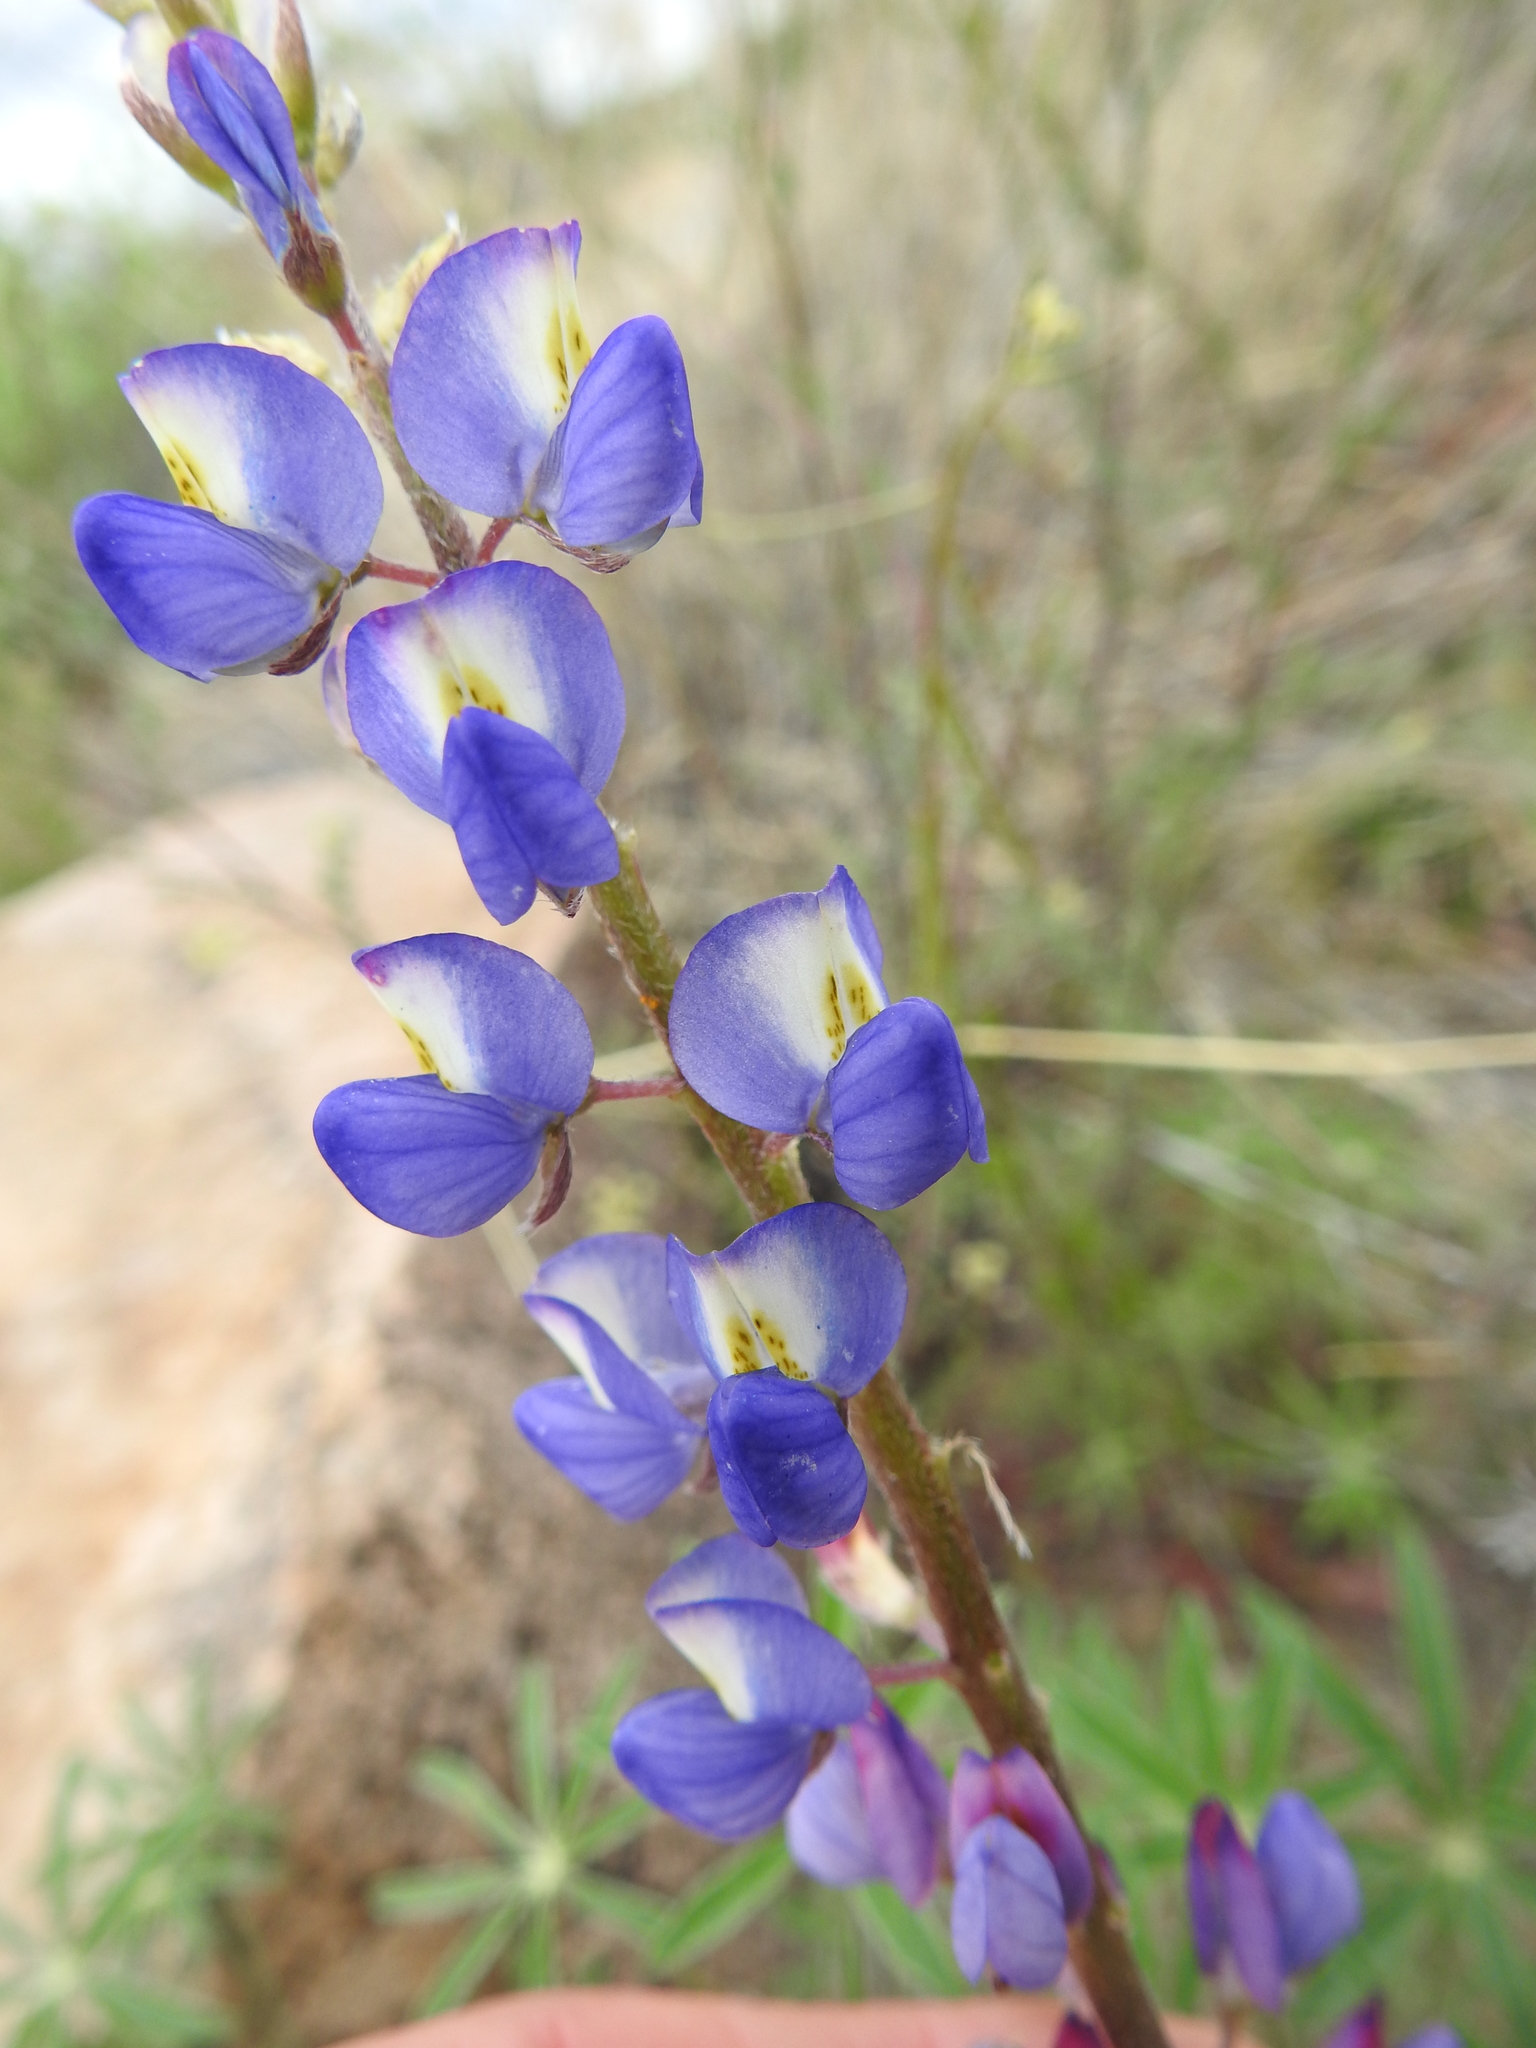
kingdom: Plantae
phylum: Tracheophyta
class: Magnoliopsida
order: Fabales
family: Fabaceae
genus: Lupinus
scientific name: Lupinus sparsiflorus
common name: Coulter's lupine
